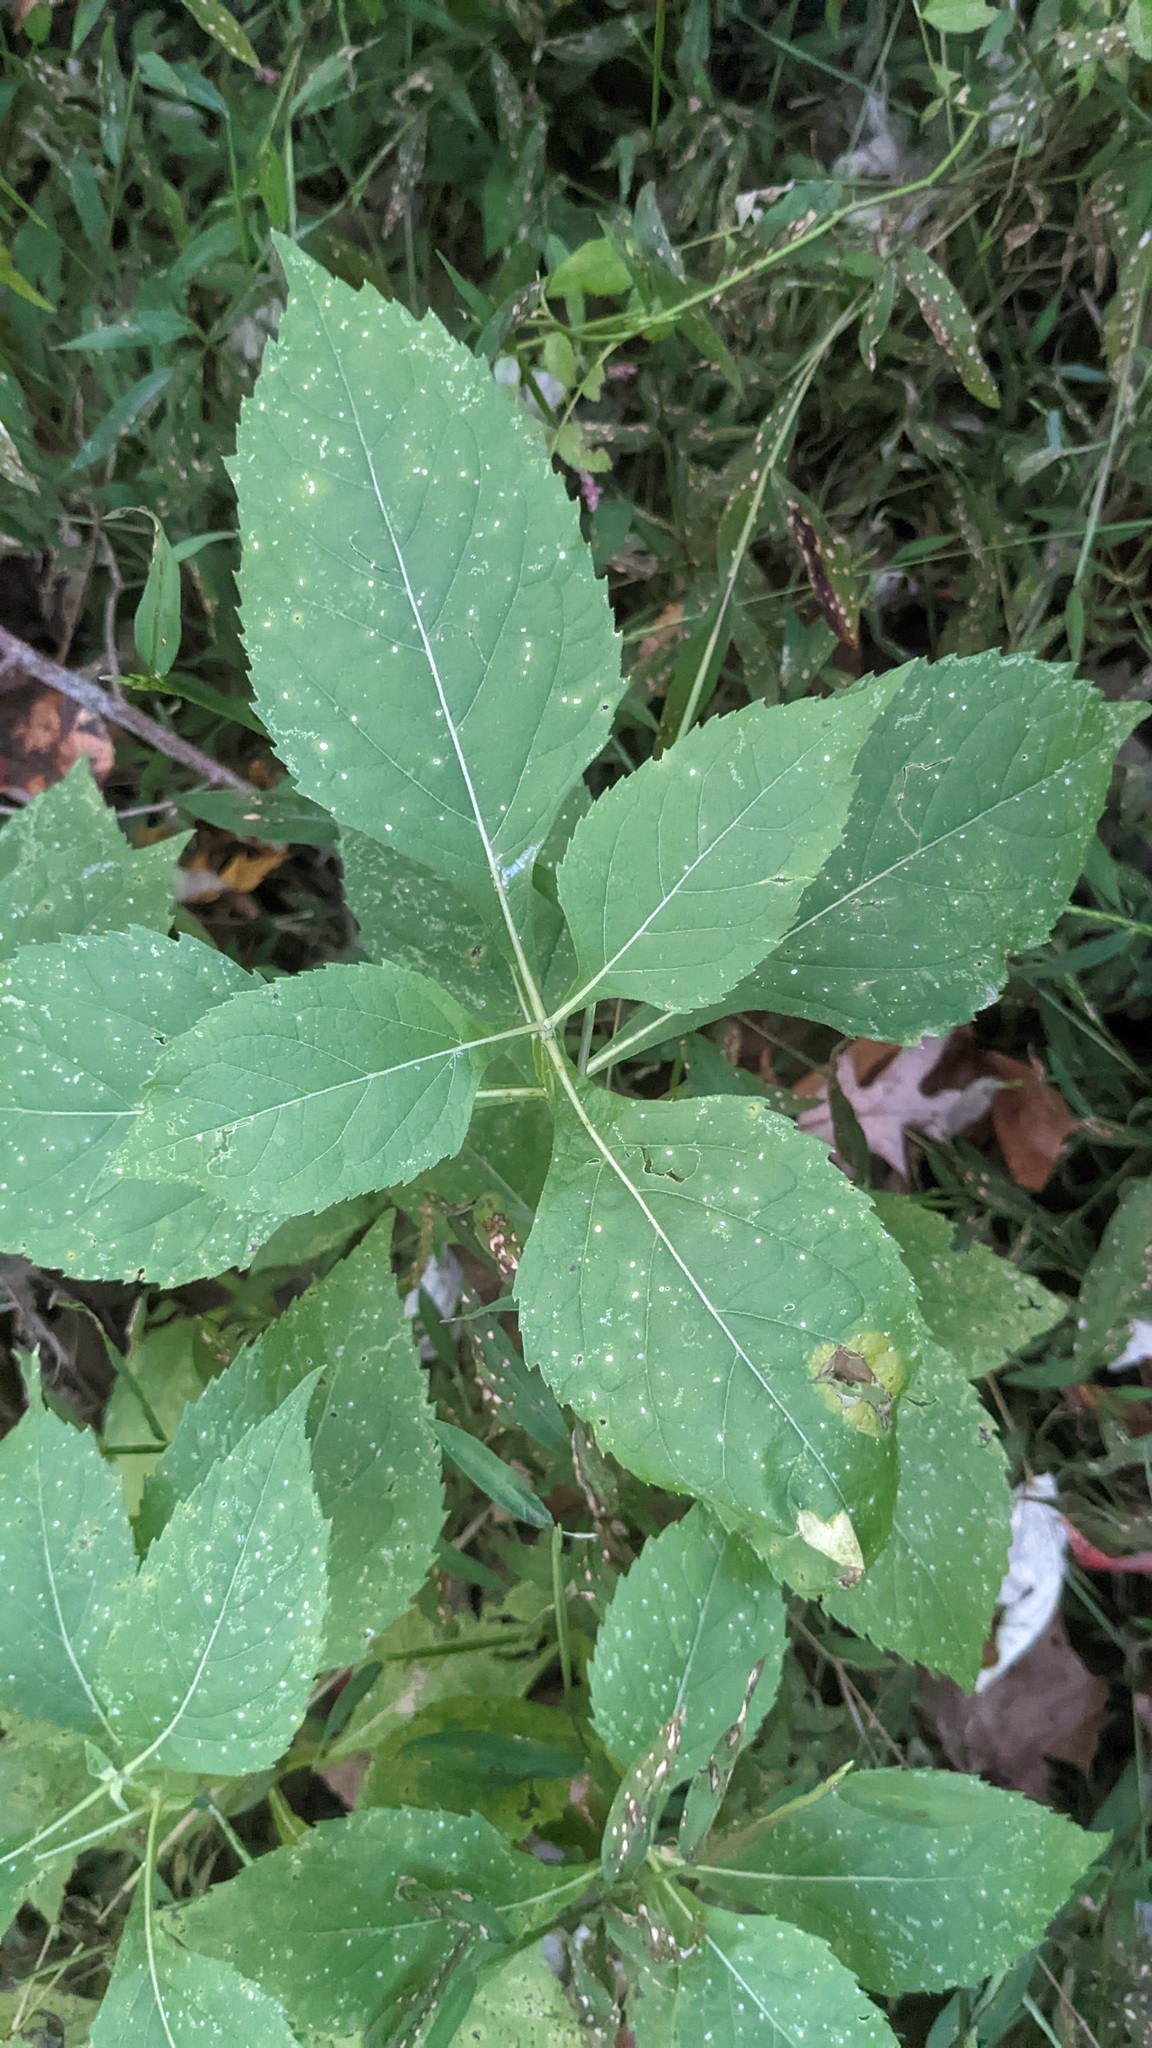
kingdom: Plantae
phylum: Tracheophyta
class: Magnoliopsida
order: Asterales
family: Asteraceae
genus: Verbesina
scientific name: Verbesina occidentalis
